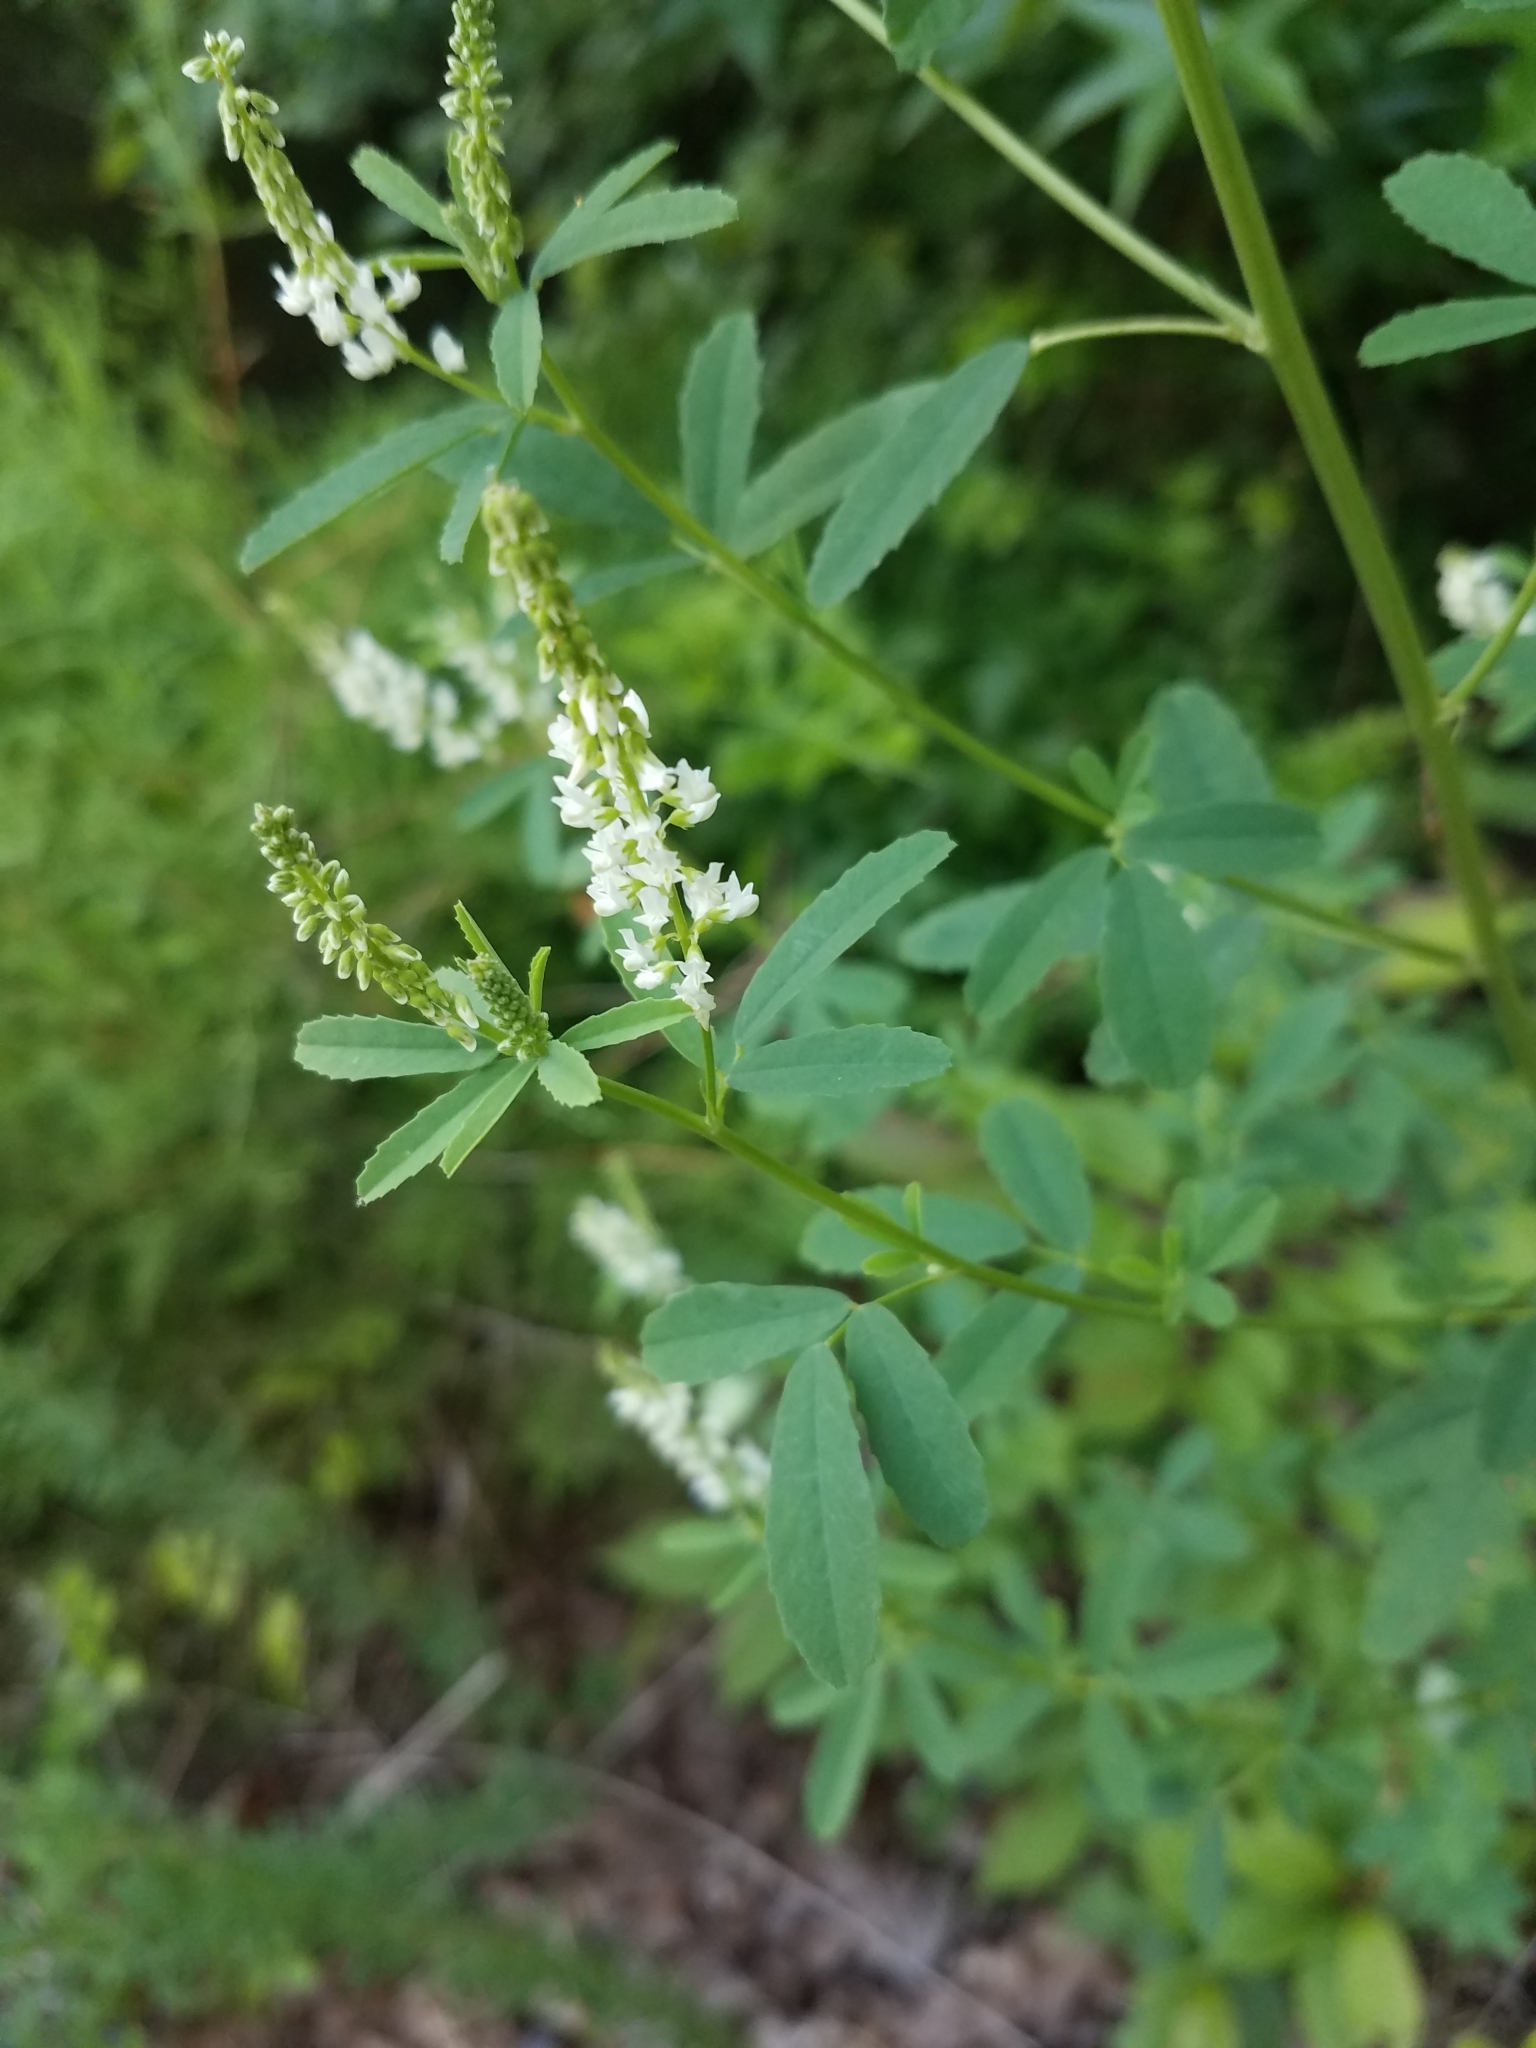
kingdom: Plantae
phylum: Tracheophyta
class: Magnoliopsida
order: Fabales
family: Fabaceae
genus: Melilotus
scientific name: Melilotus albus
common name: White melilot
